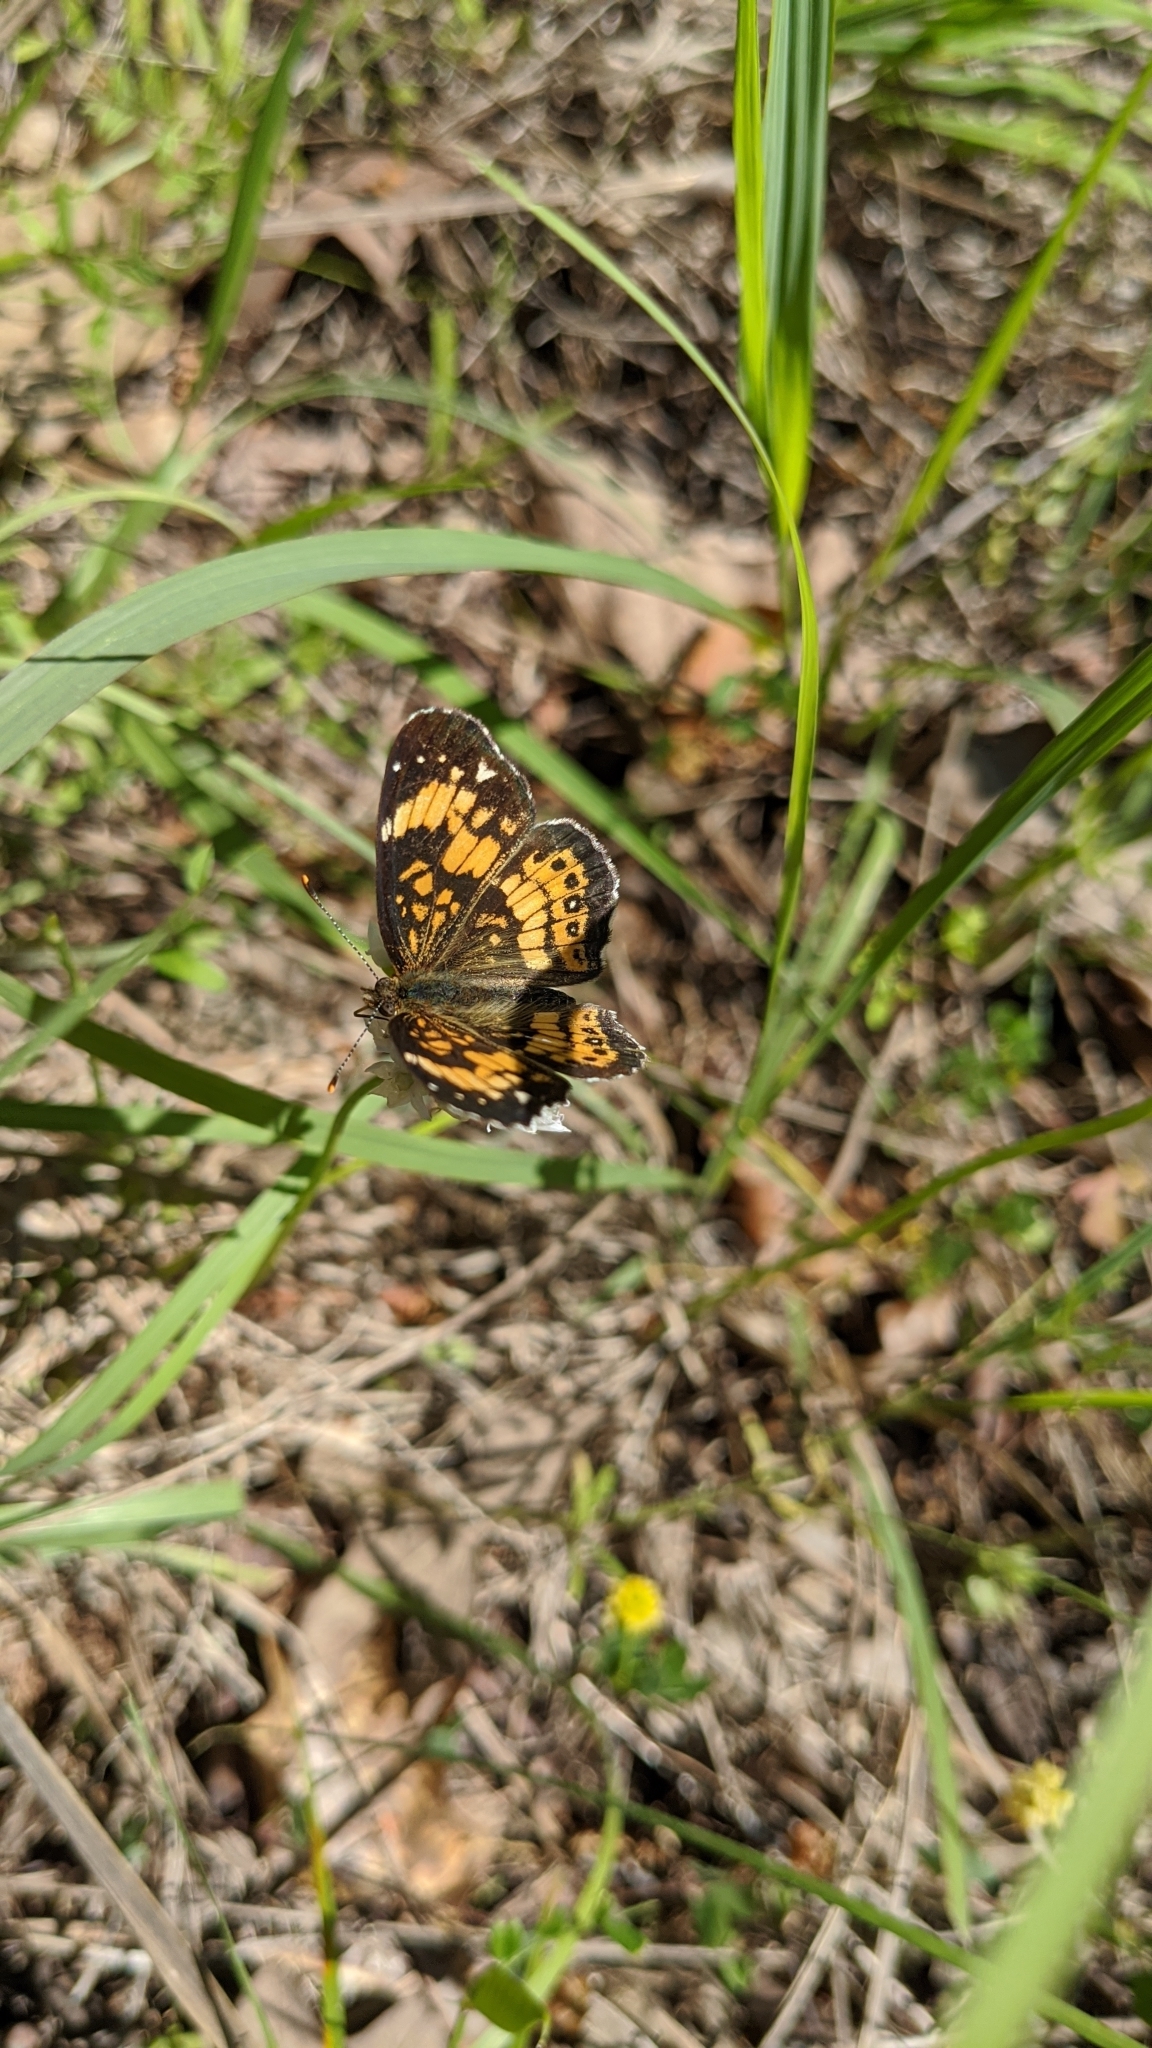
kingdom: Animalia
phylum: Arthropoda
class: Insecta
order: Lepidoptera
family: Nymphalidae
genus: Chlosyne
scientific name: Chlosyne nycteis
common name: Silvery checkerspot
